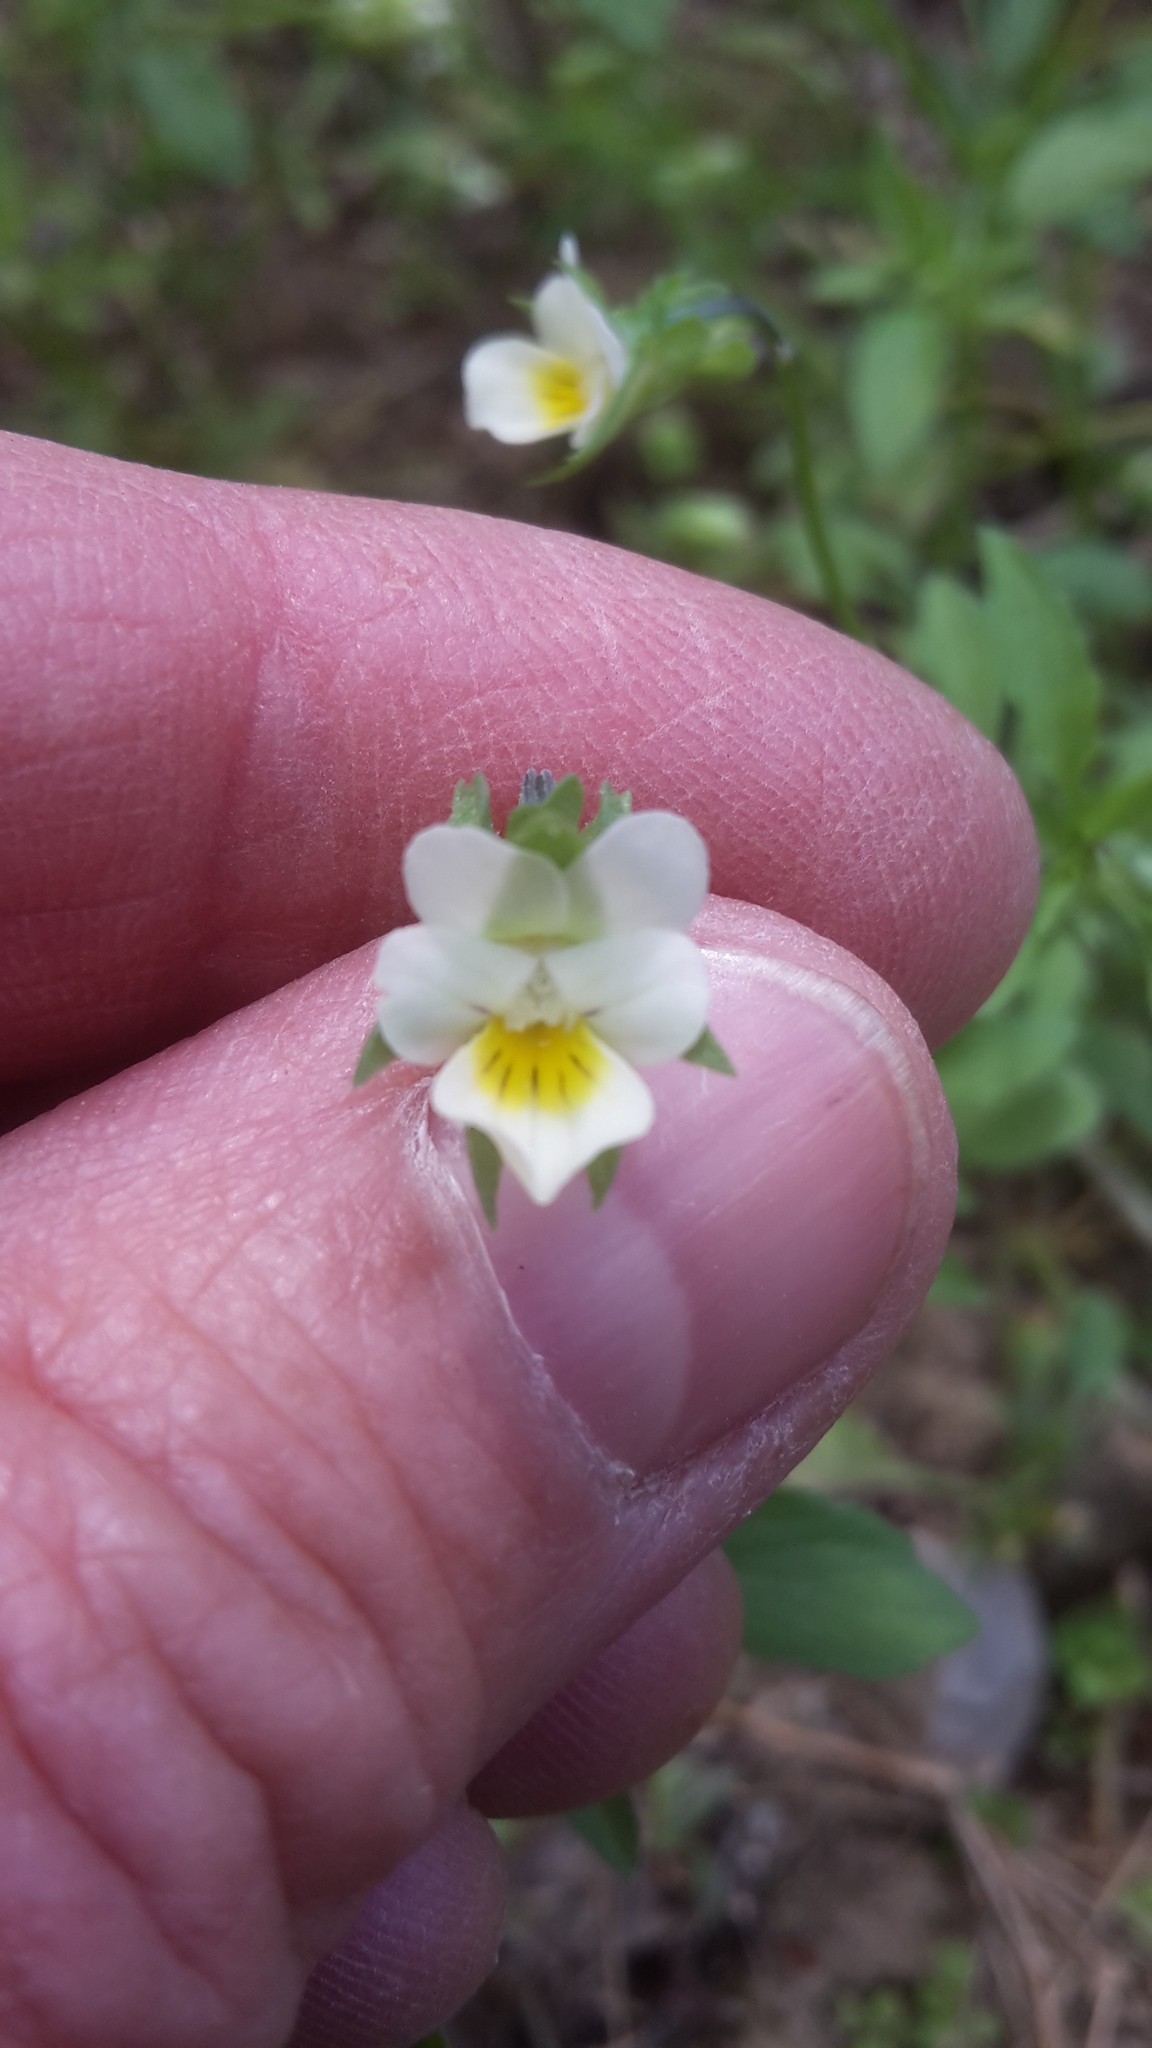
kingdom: Plantae
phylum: Tracheophyta
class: Magnoliopsida
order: Malpighiales
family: Violaceae
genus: Viola
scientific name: Viola arvensis
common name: Field pansy
